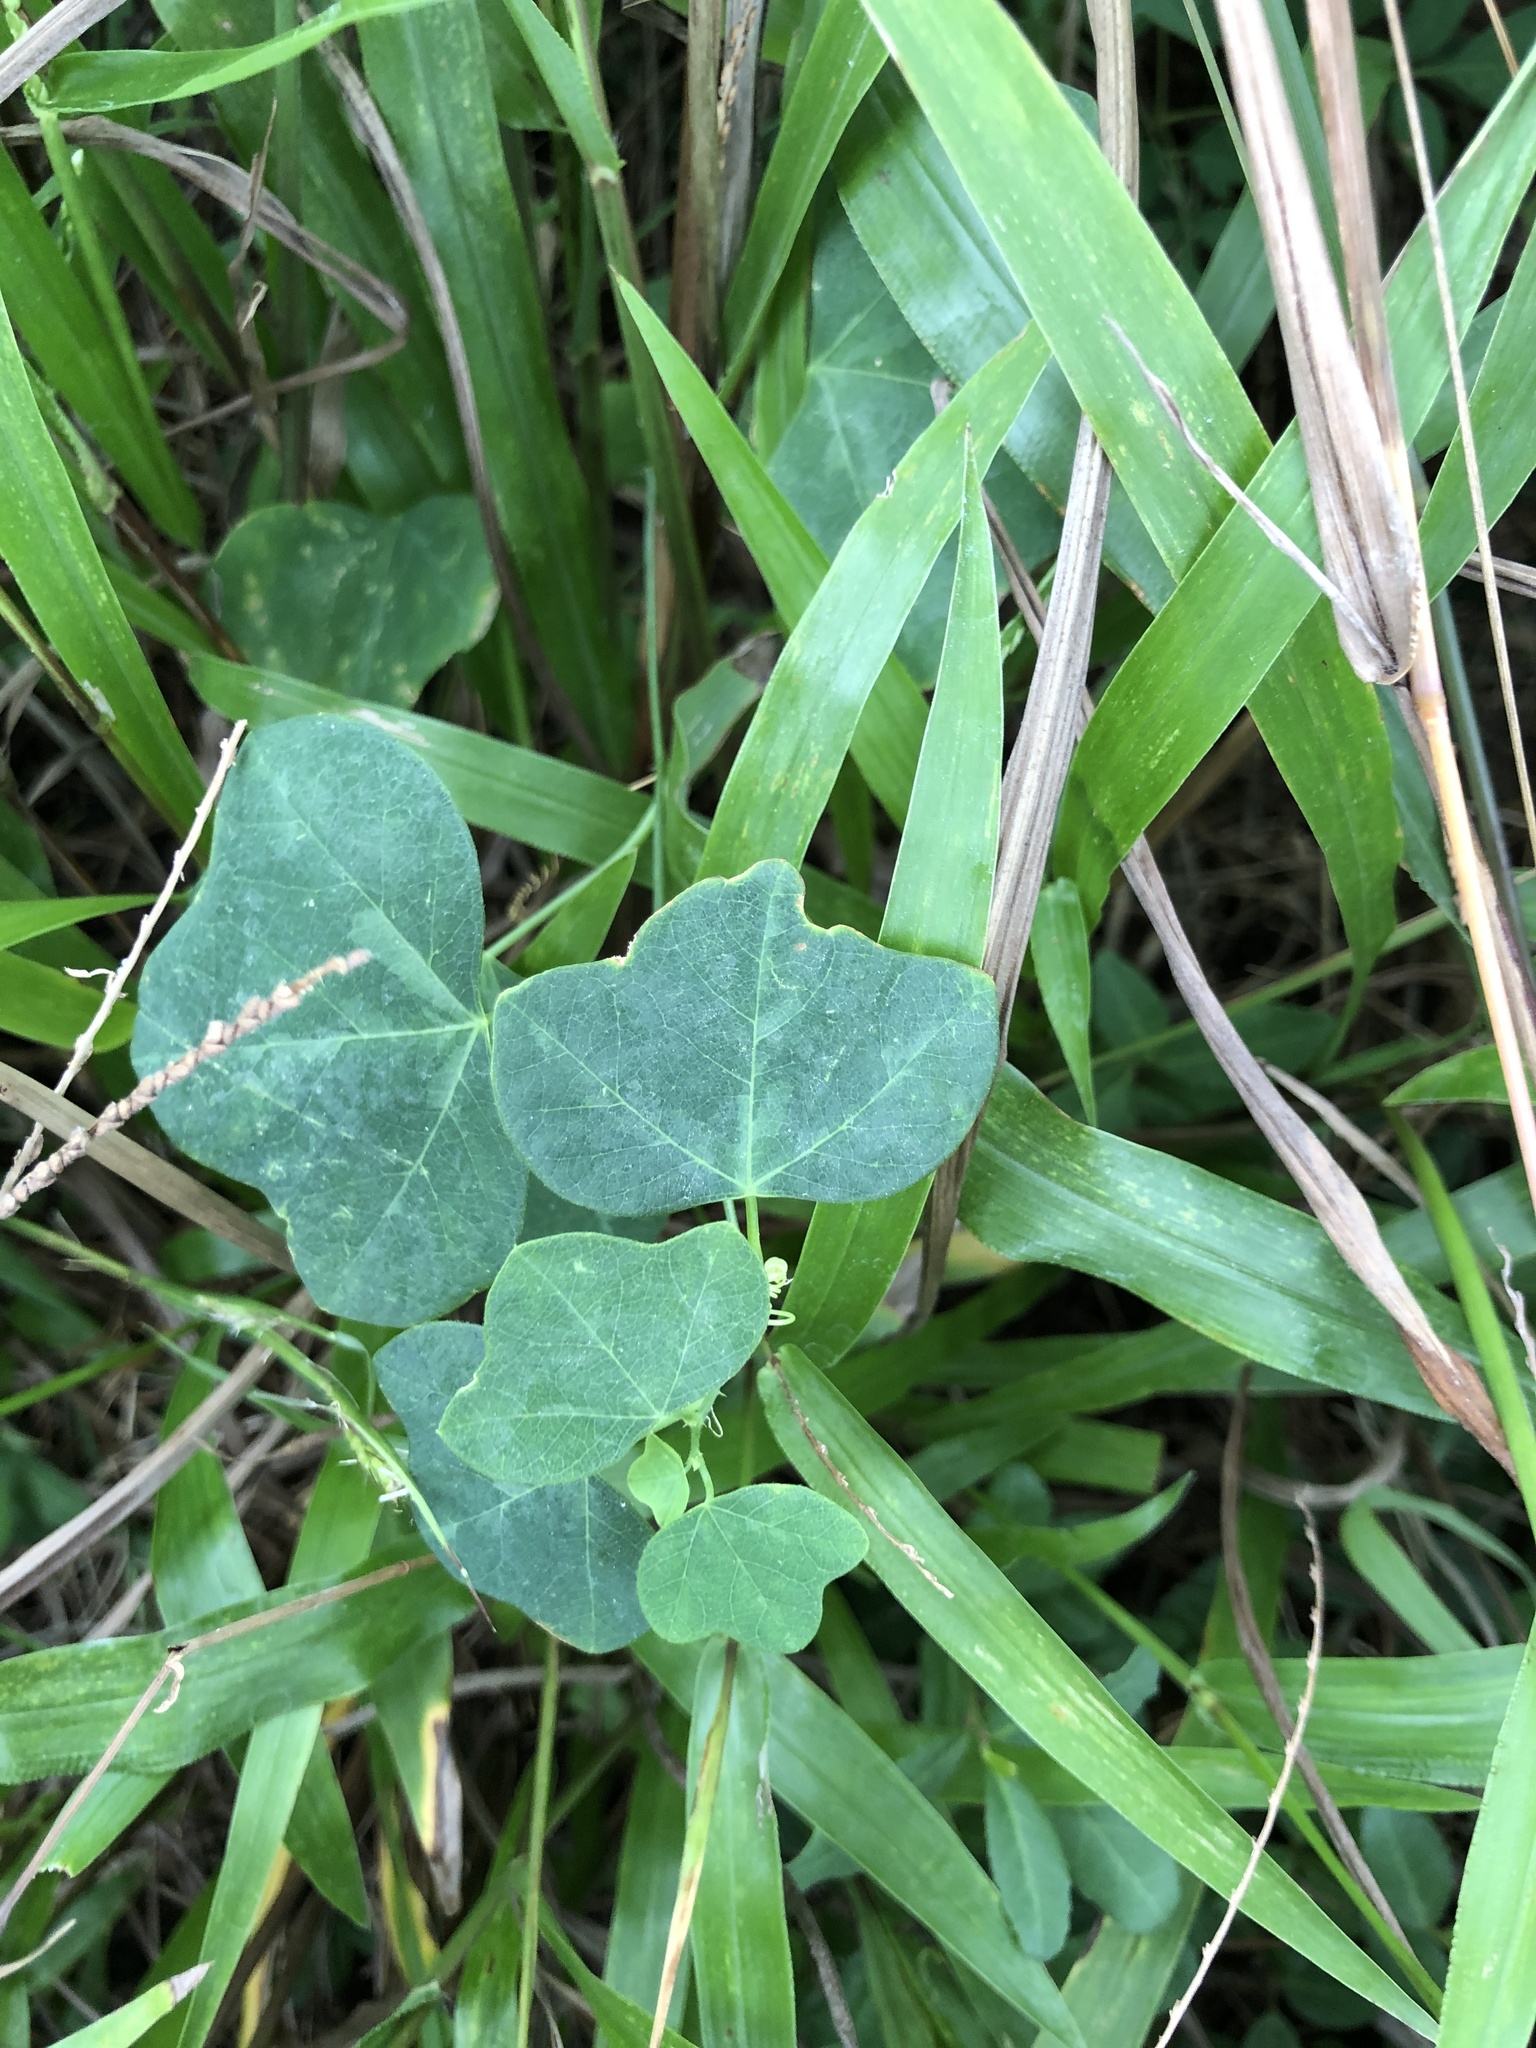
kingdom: Plantae
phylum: Tracheophyta
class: Magnoliopsida
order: Malpighiales
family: Passifloraceae
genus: Passiflora
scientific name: Passiflora lutea
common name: Yellow passionflower
